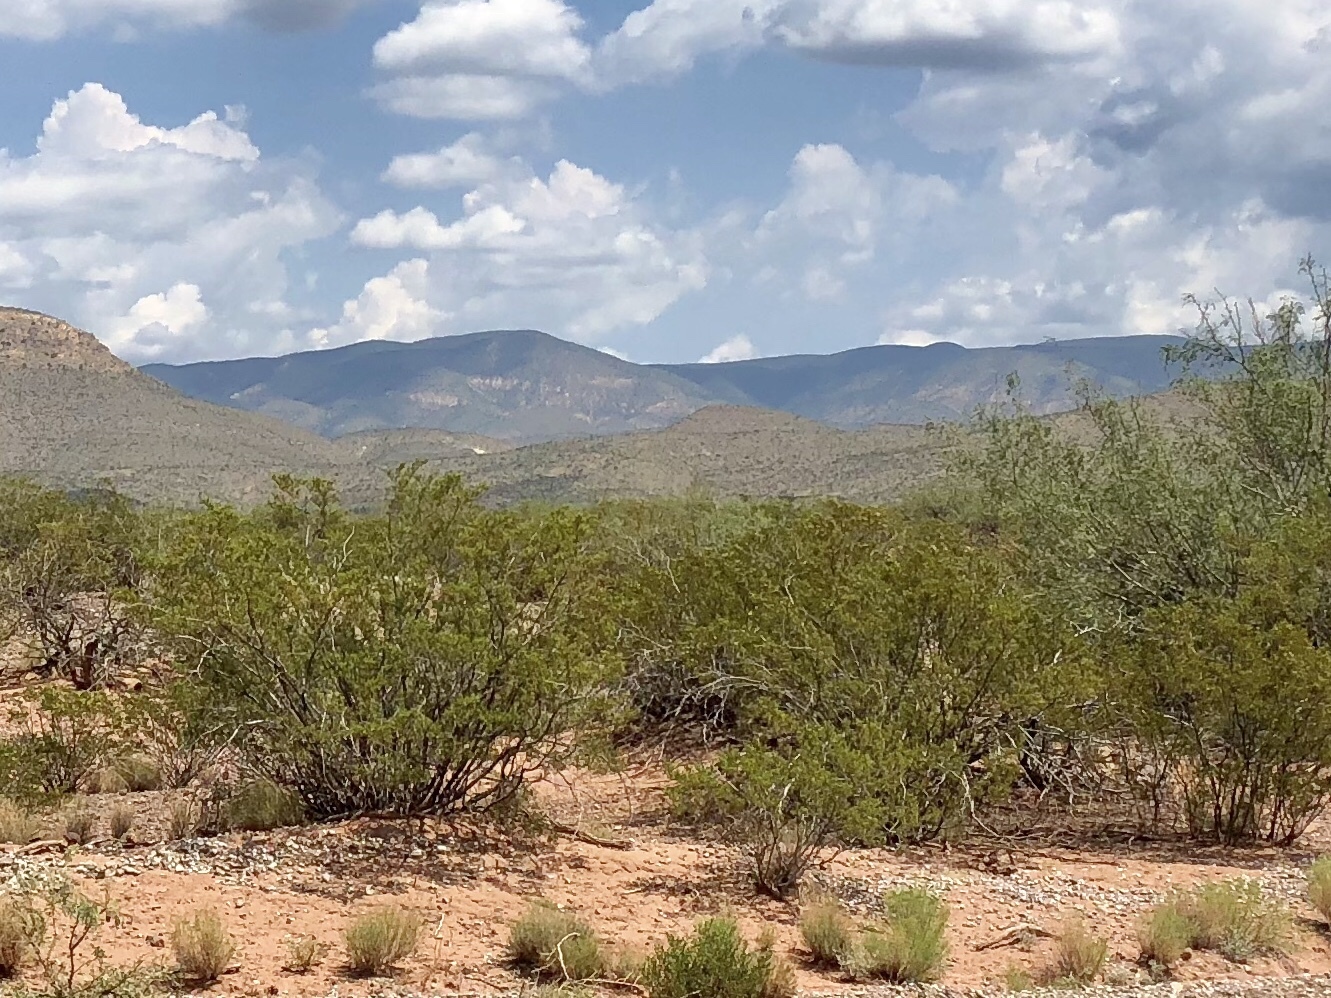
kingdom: Plantae
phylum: Tracheophyta
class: Magnoliopsida
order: Zygophyllales
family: Zygophyllaceae
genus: Larrea
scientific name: Larrea tridentata
